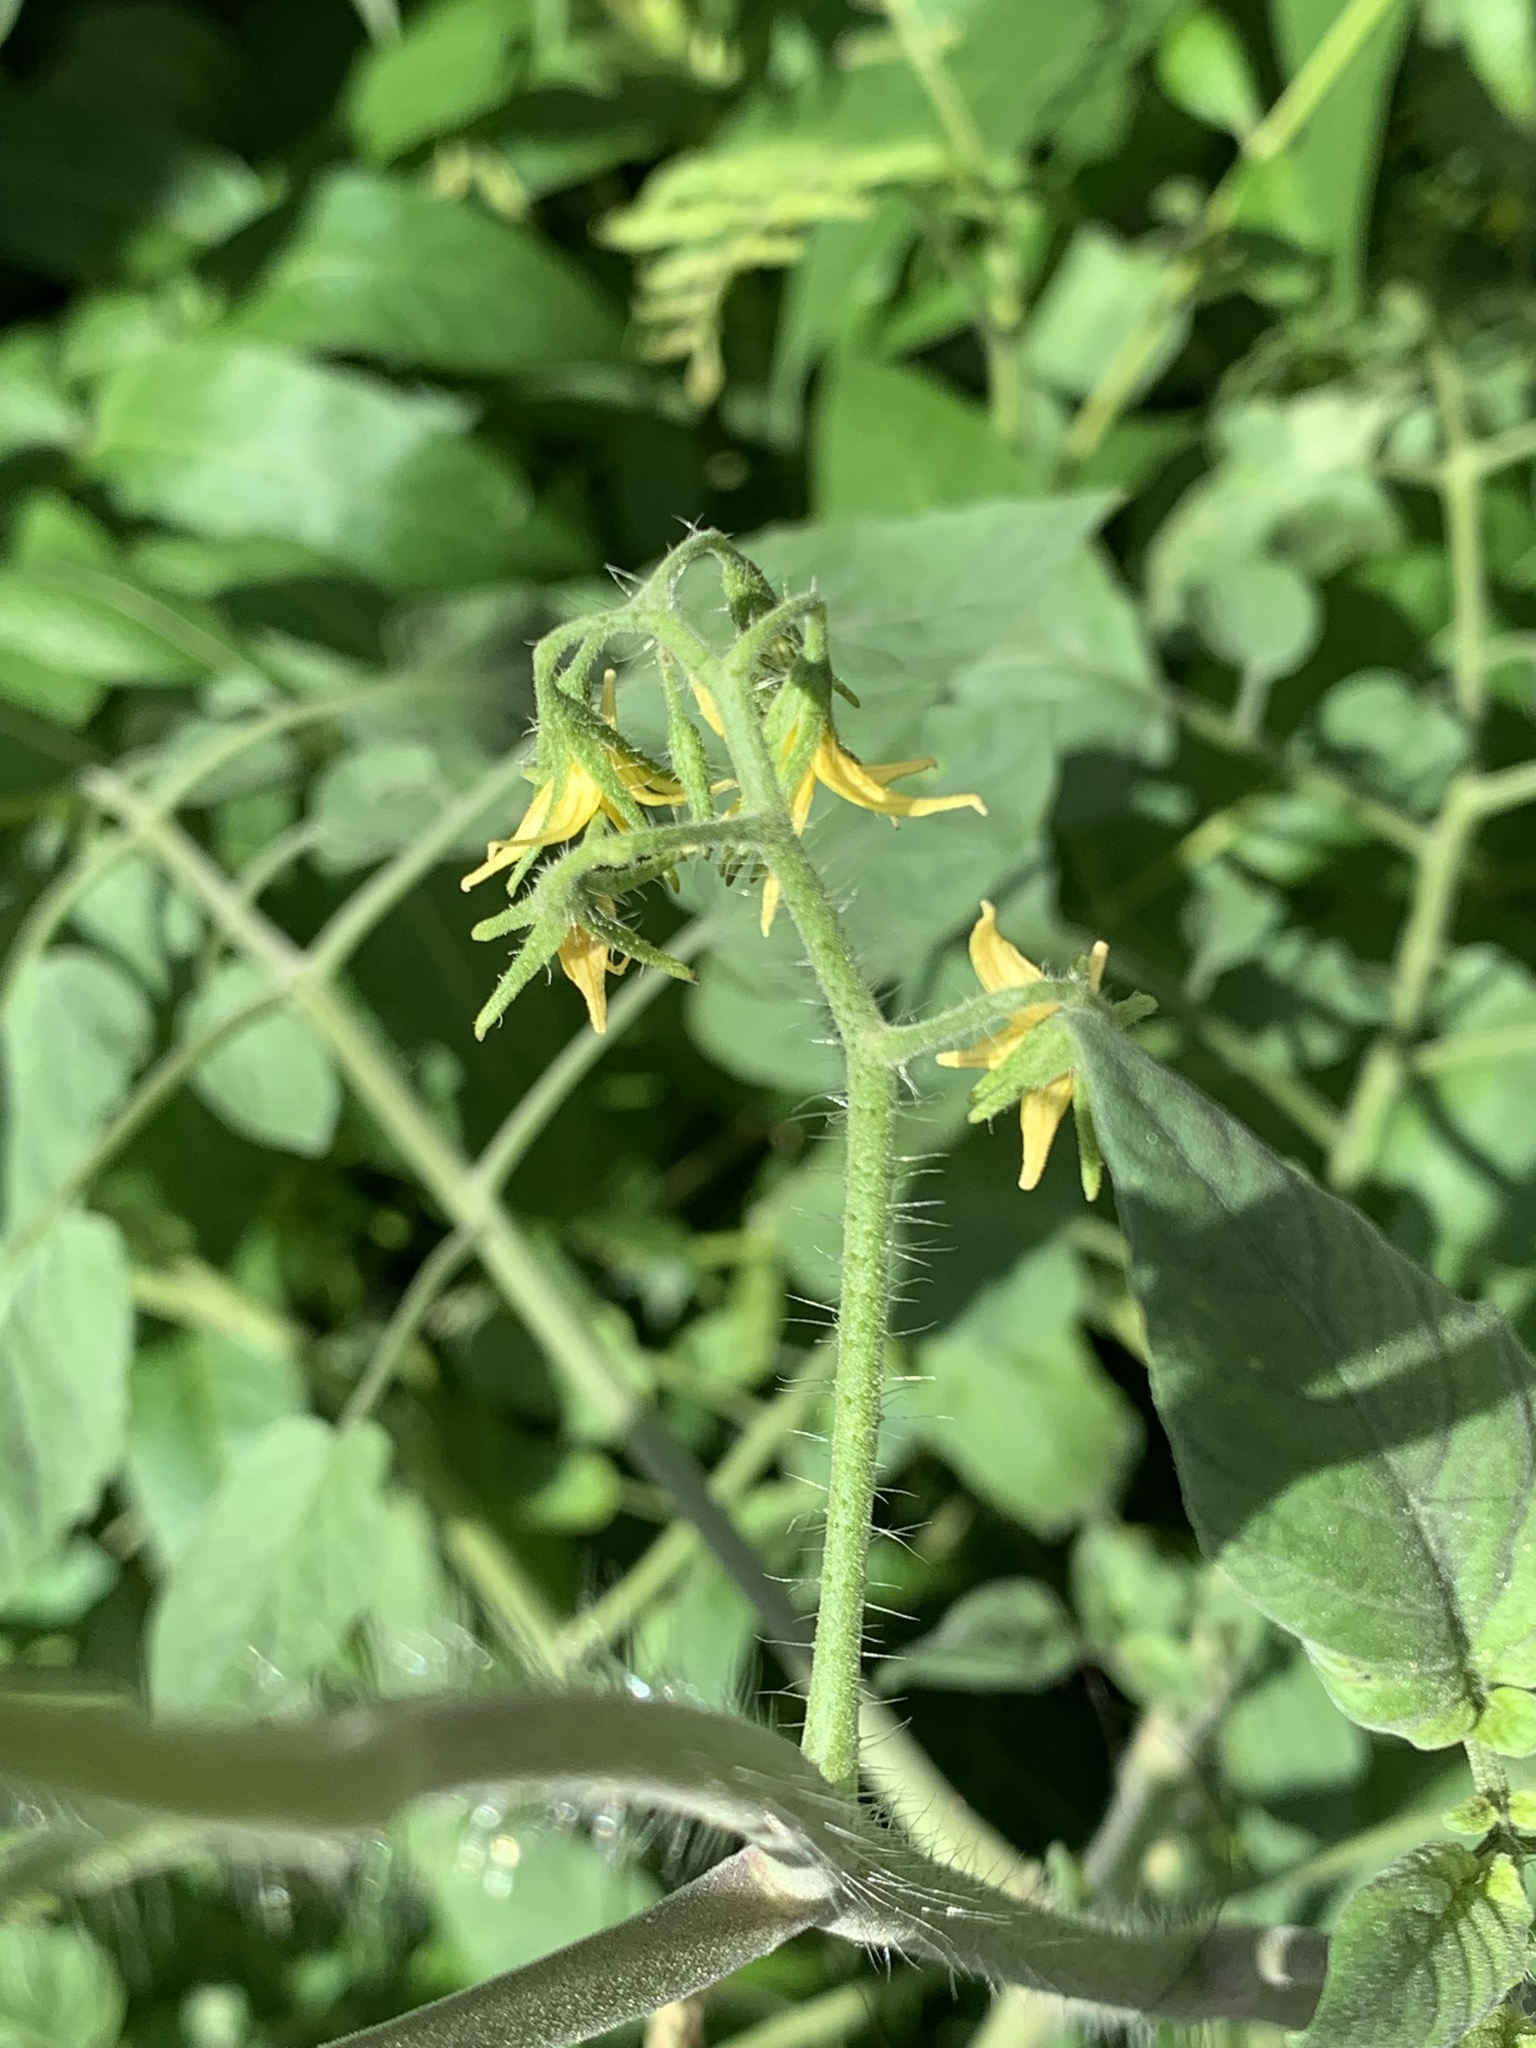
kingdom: Plantae
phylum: Tracheophyta
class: Magnoliopsida
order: Solanales
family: Solanaceae
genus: Solanum
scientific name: Solanum lycopersicum
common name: Garden tomato
